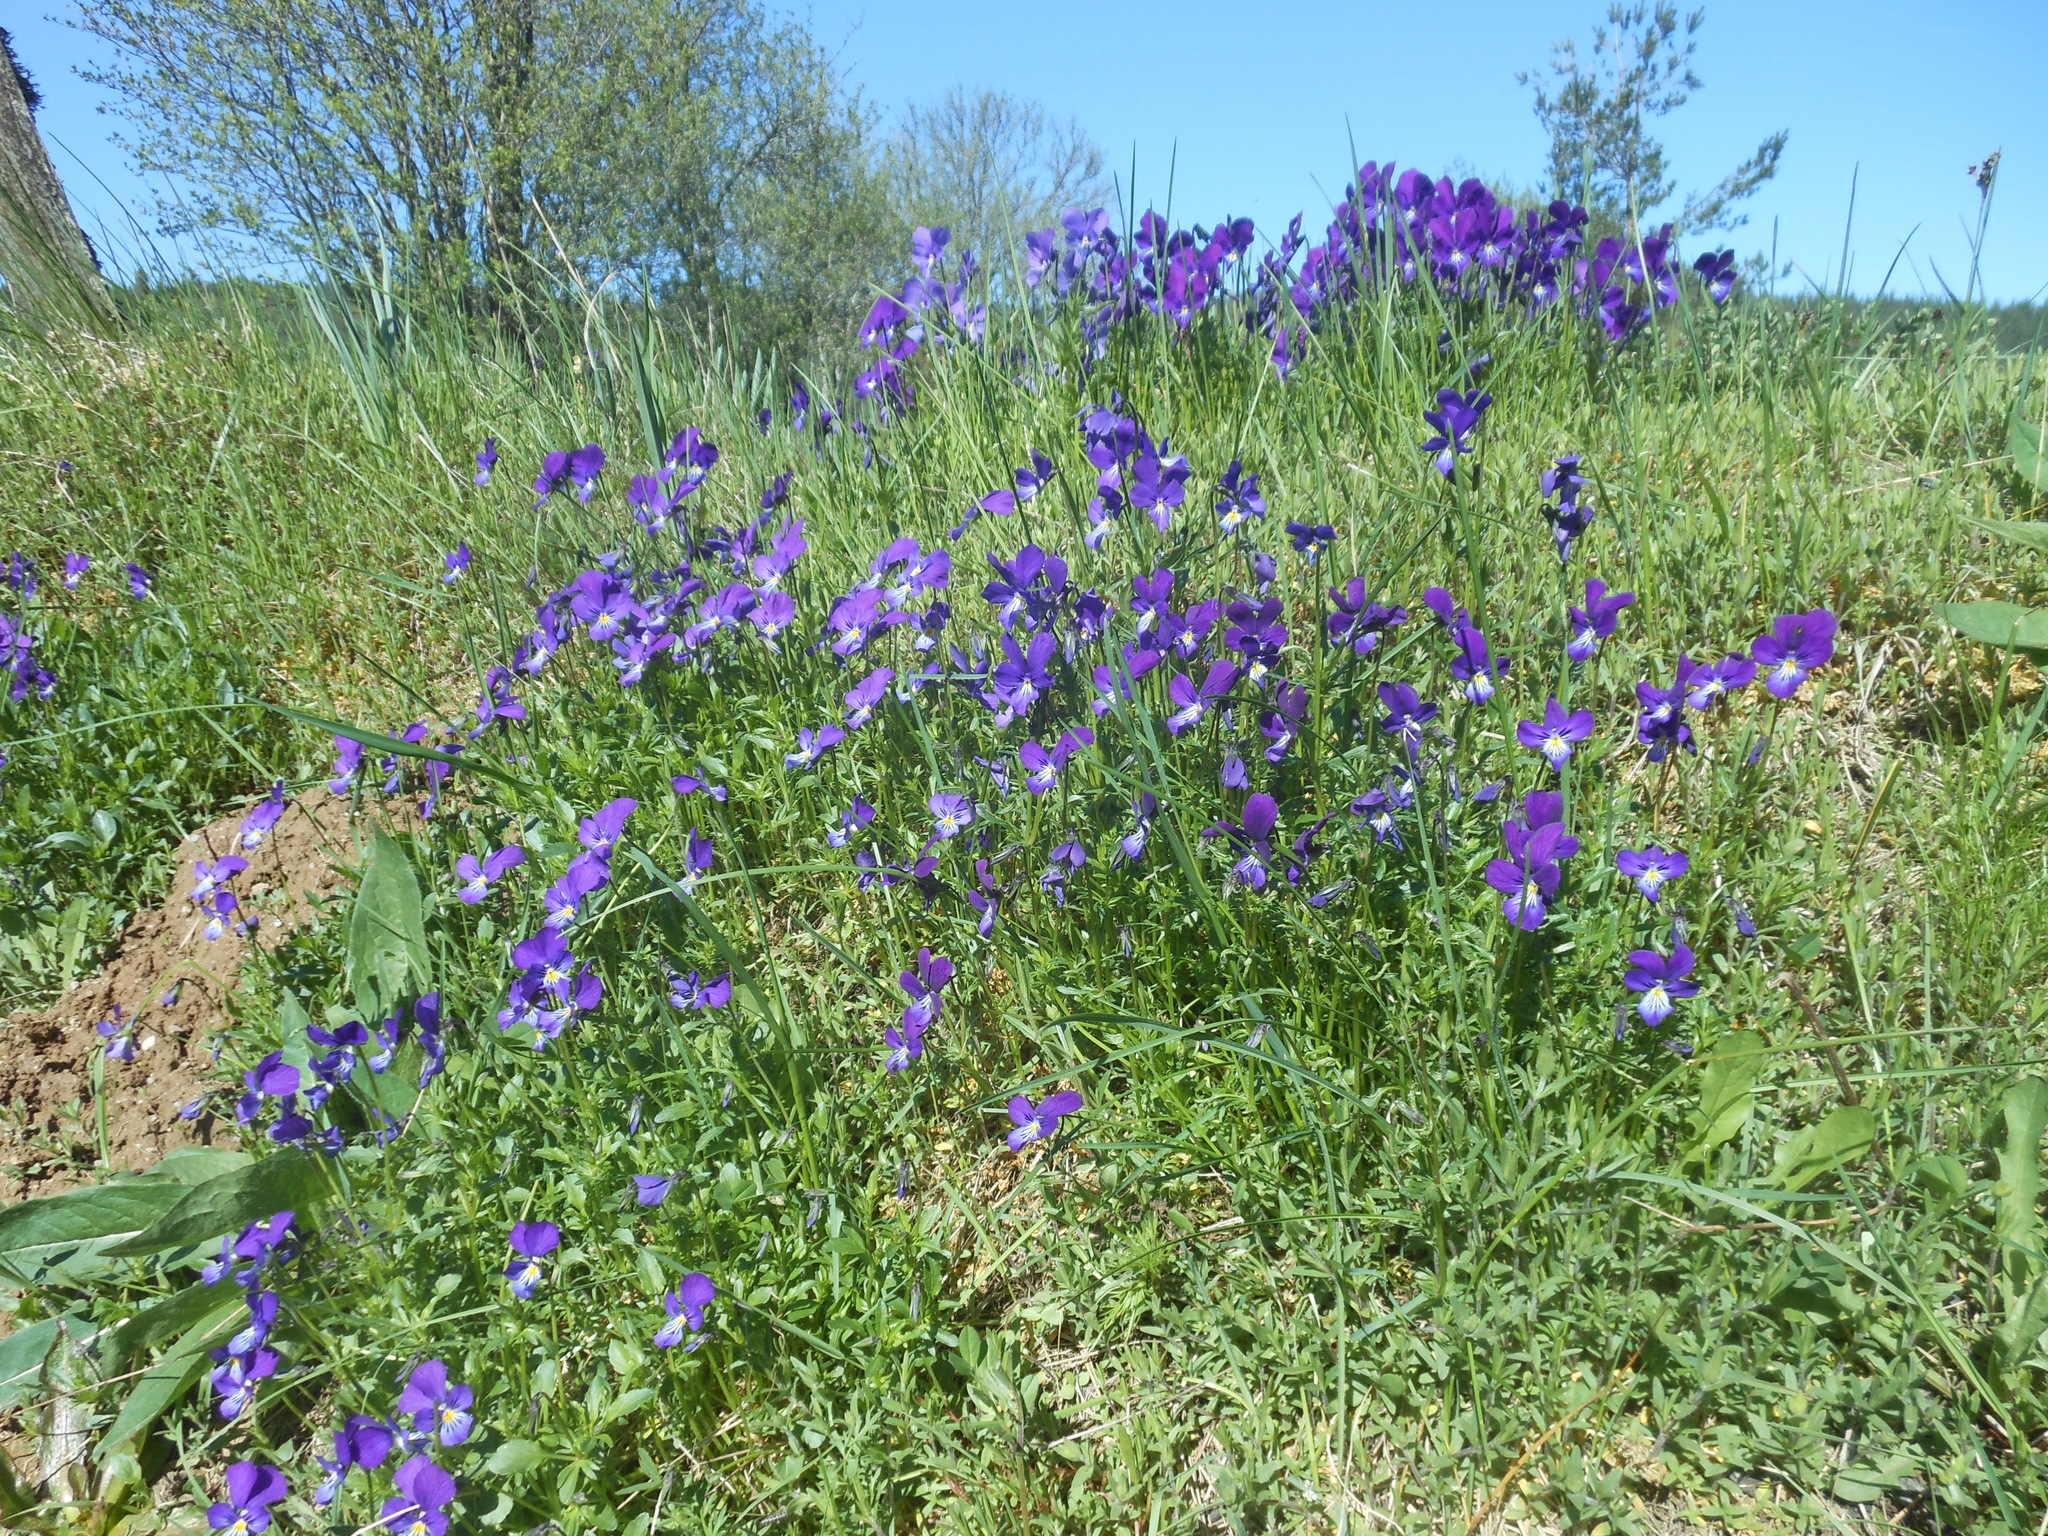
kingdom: Plantae
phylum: Tracheophyta
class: Magnoliopsida
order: Malpighiales
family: Violaceae
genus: Viola
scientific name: Viola lutea
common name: Mountain pansy
